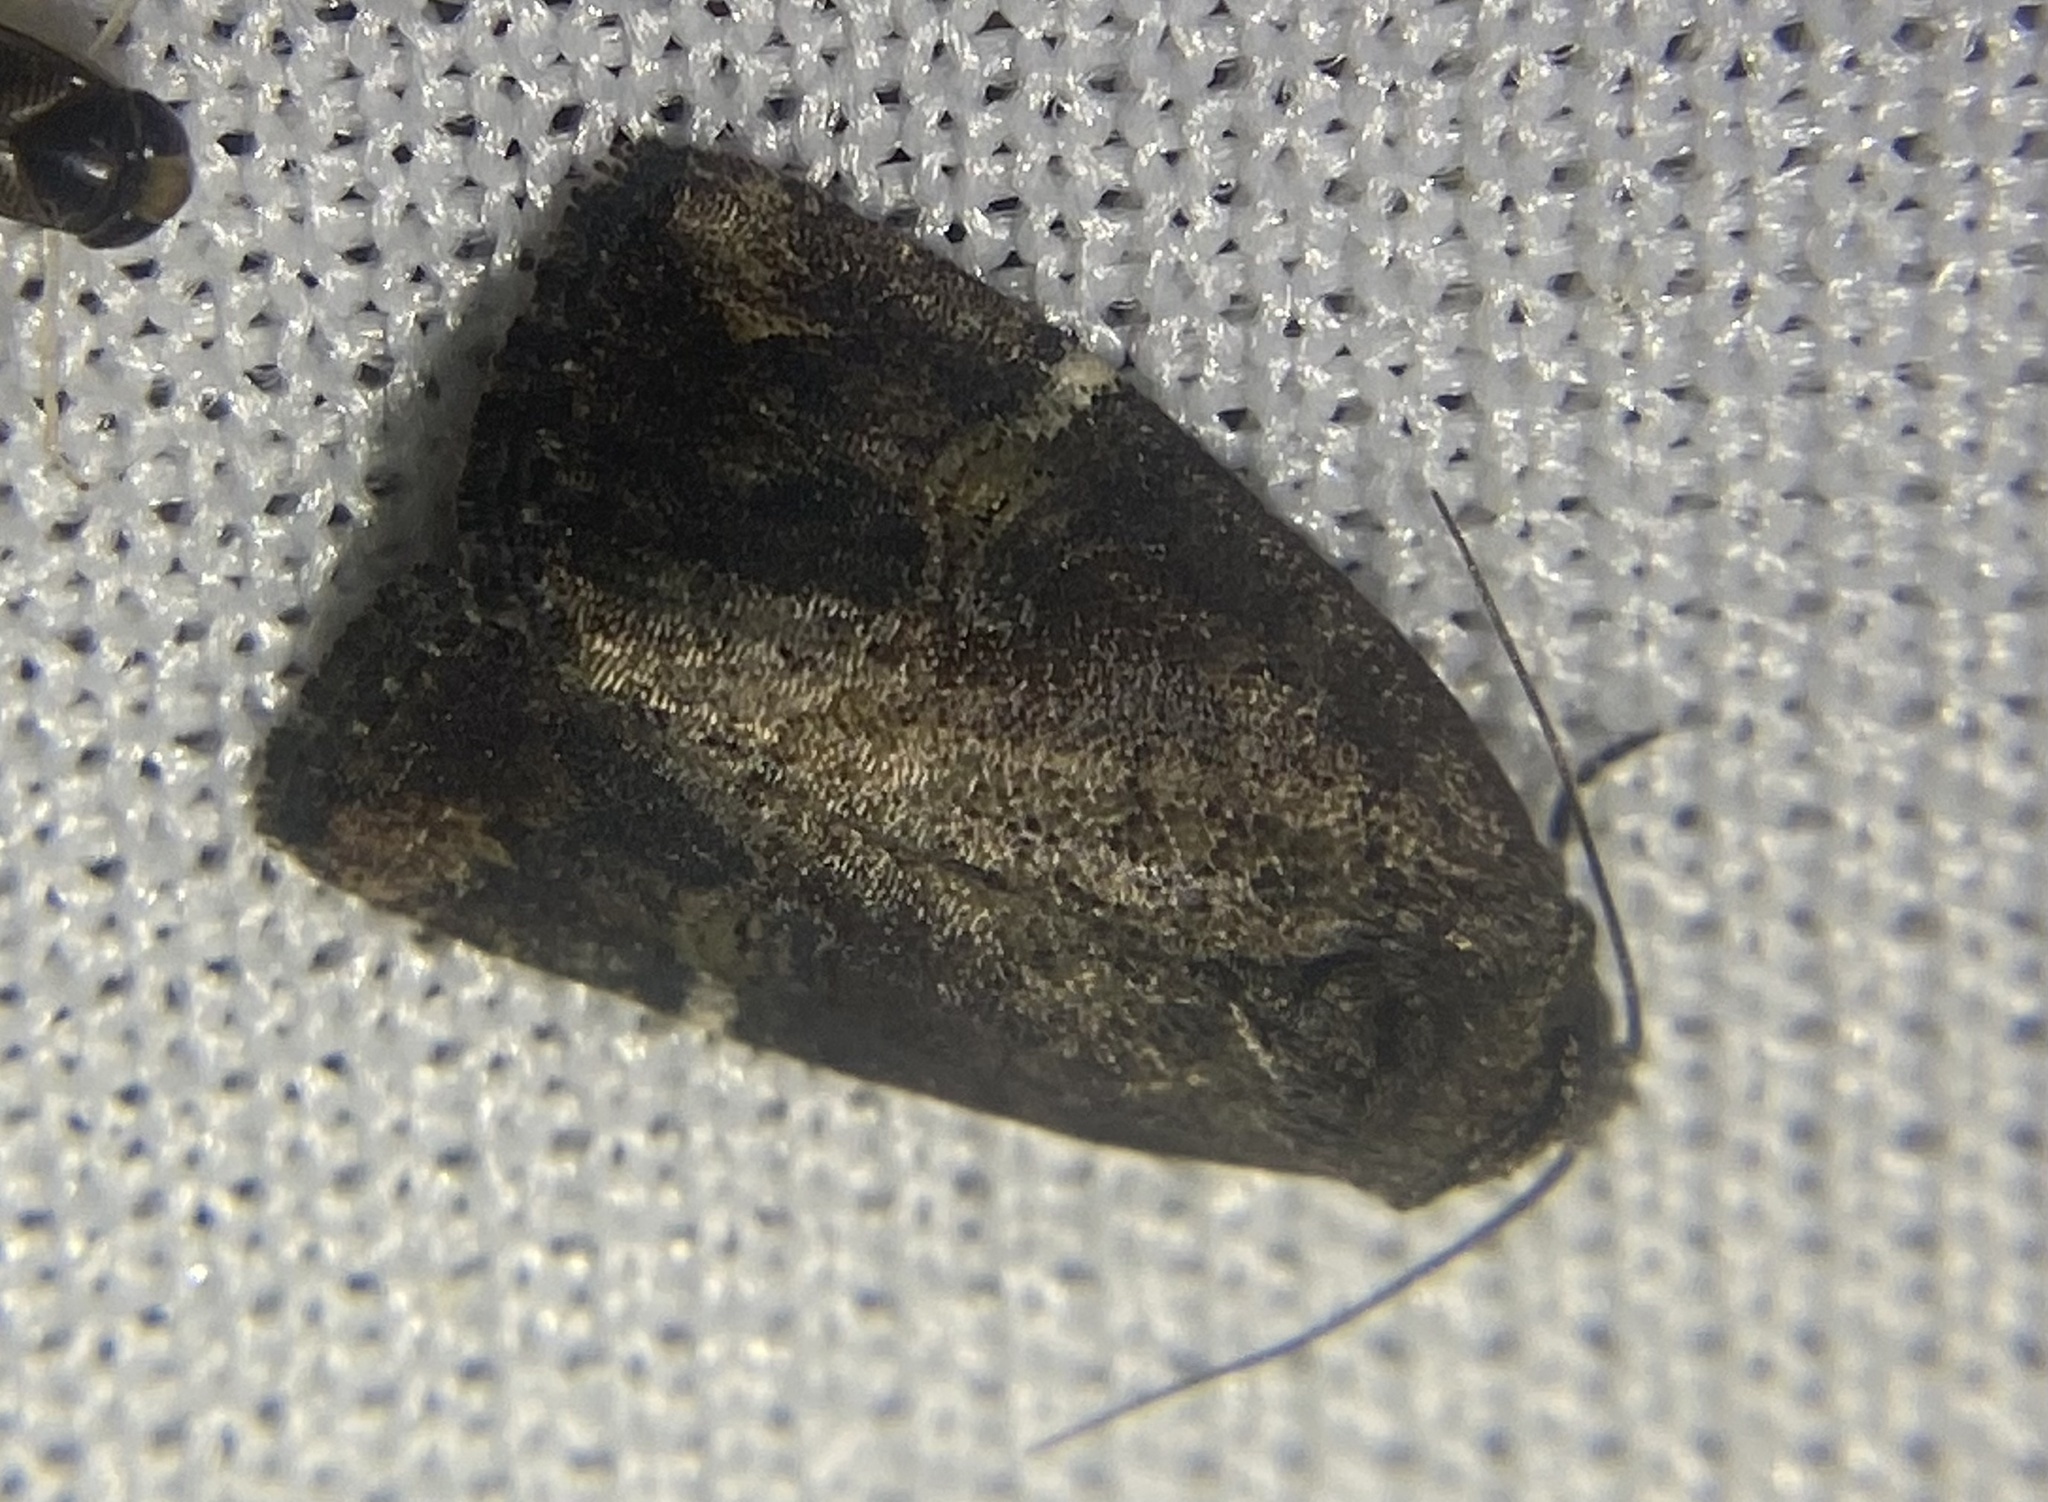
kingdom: Animalia
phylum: Arthropoda
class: Insecta
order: Lepidoptera
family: Noctuidae
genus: Elaphria
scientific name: Elaphria versicolor
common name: Fir harlequin
